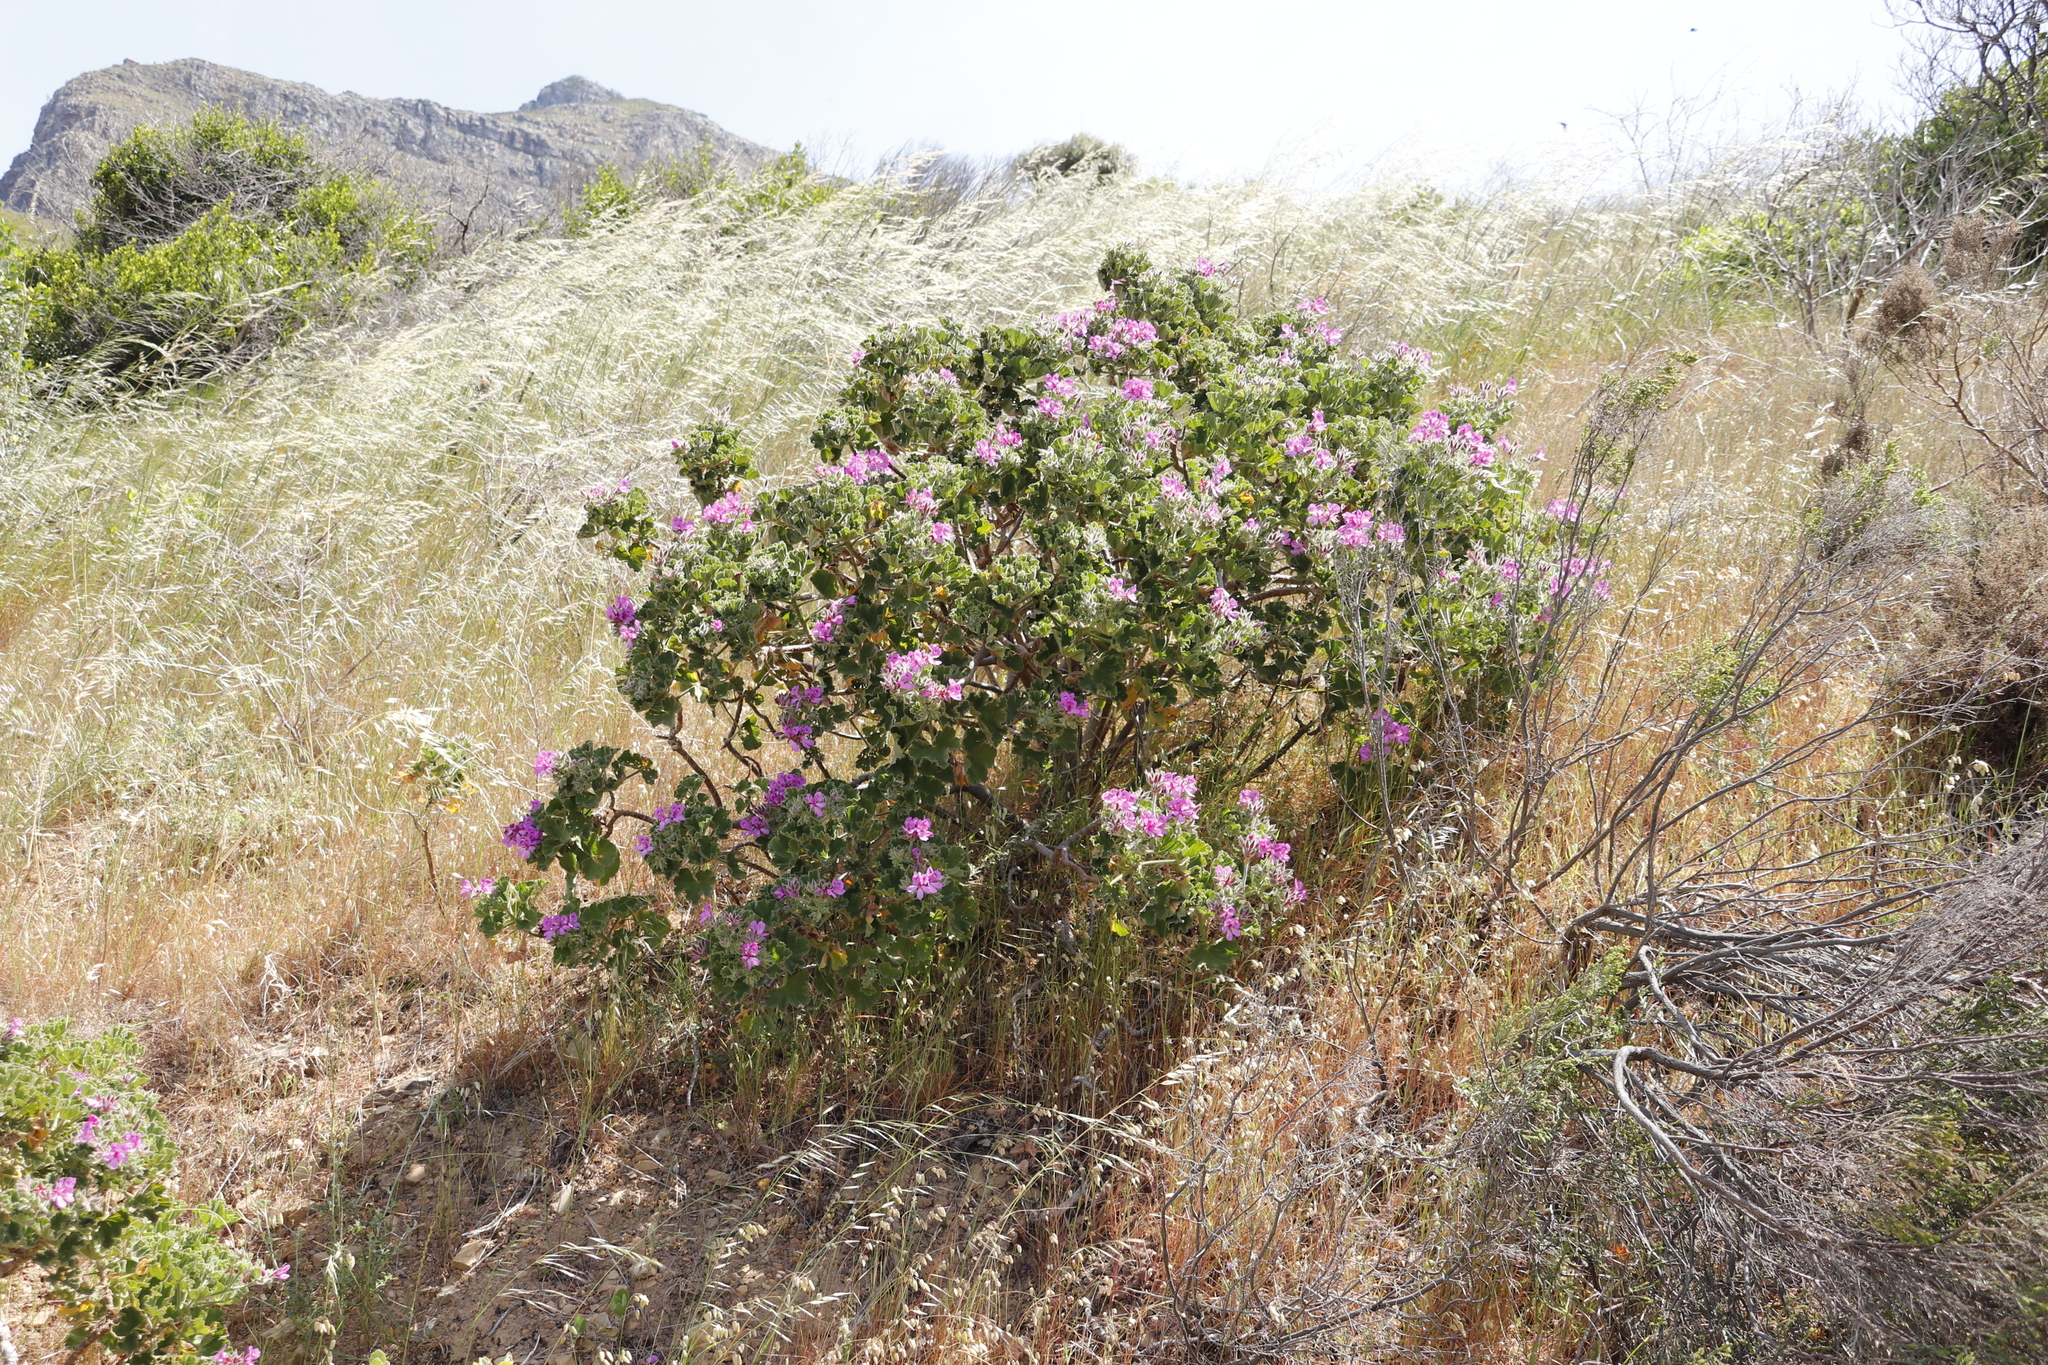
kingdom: Plantae
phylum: Tracheophyta
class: Magnoliopsida
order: Geraniales
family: Geraniaceae
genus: Pelargonium
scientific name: Pelargonium cucullatum
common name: Tree pelargonium
